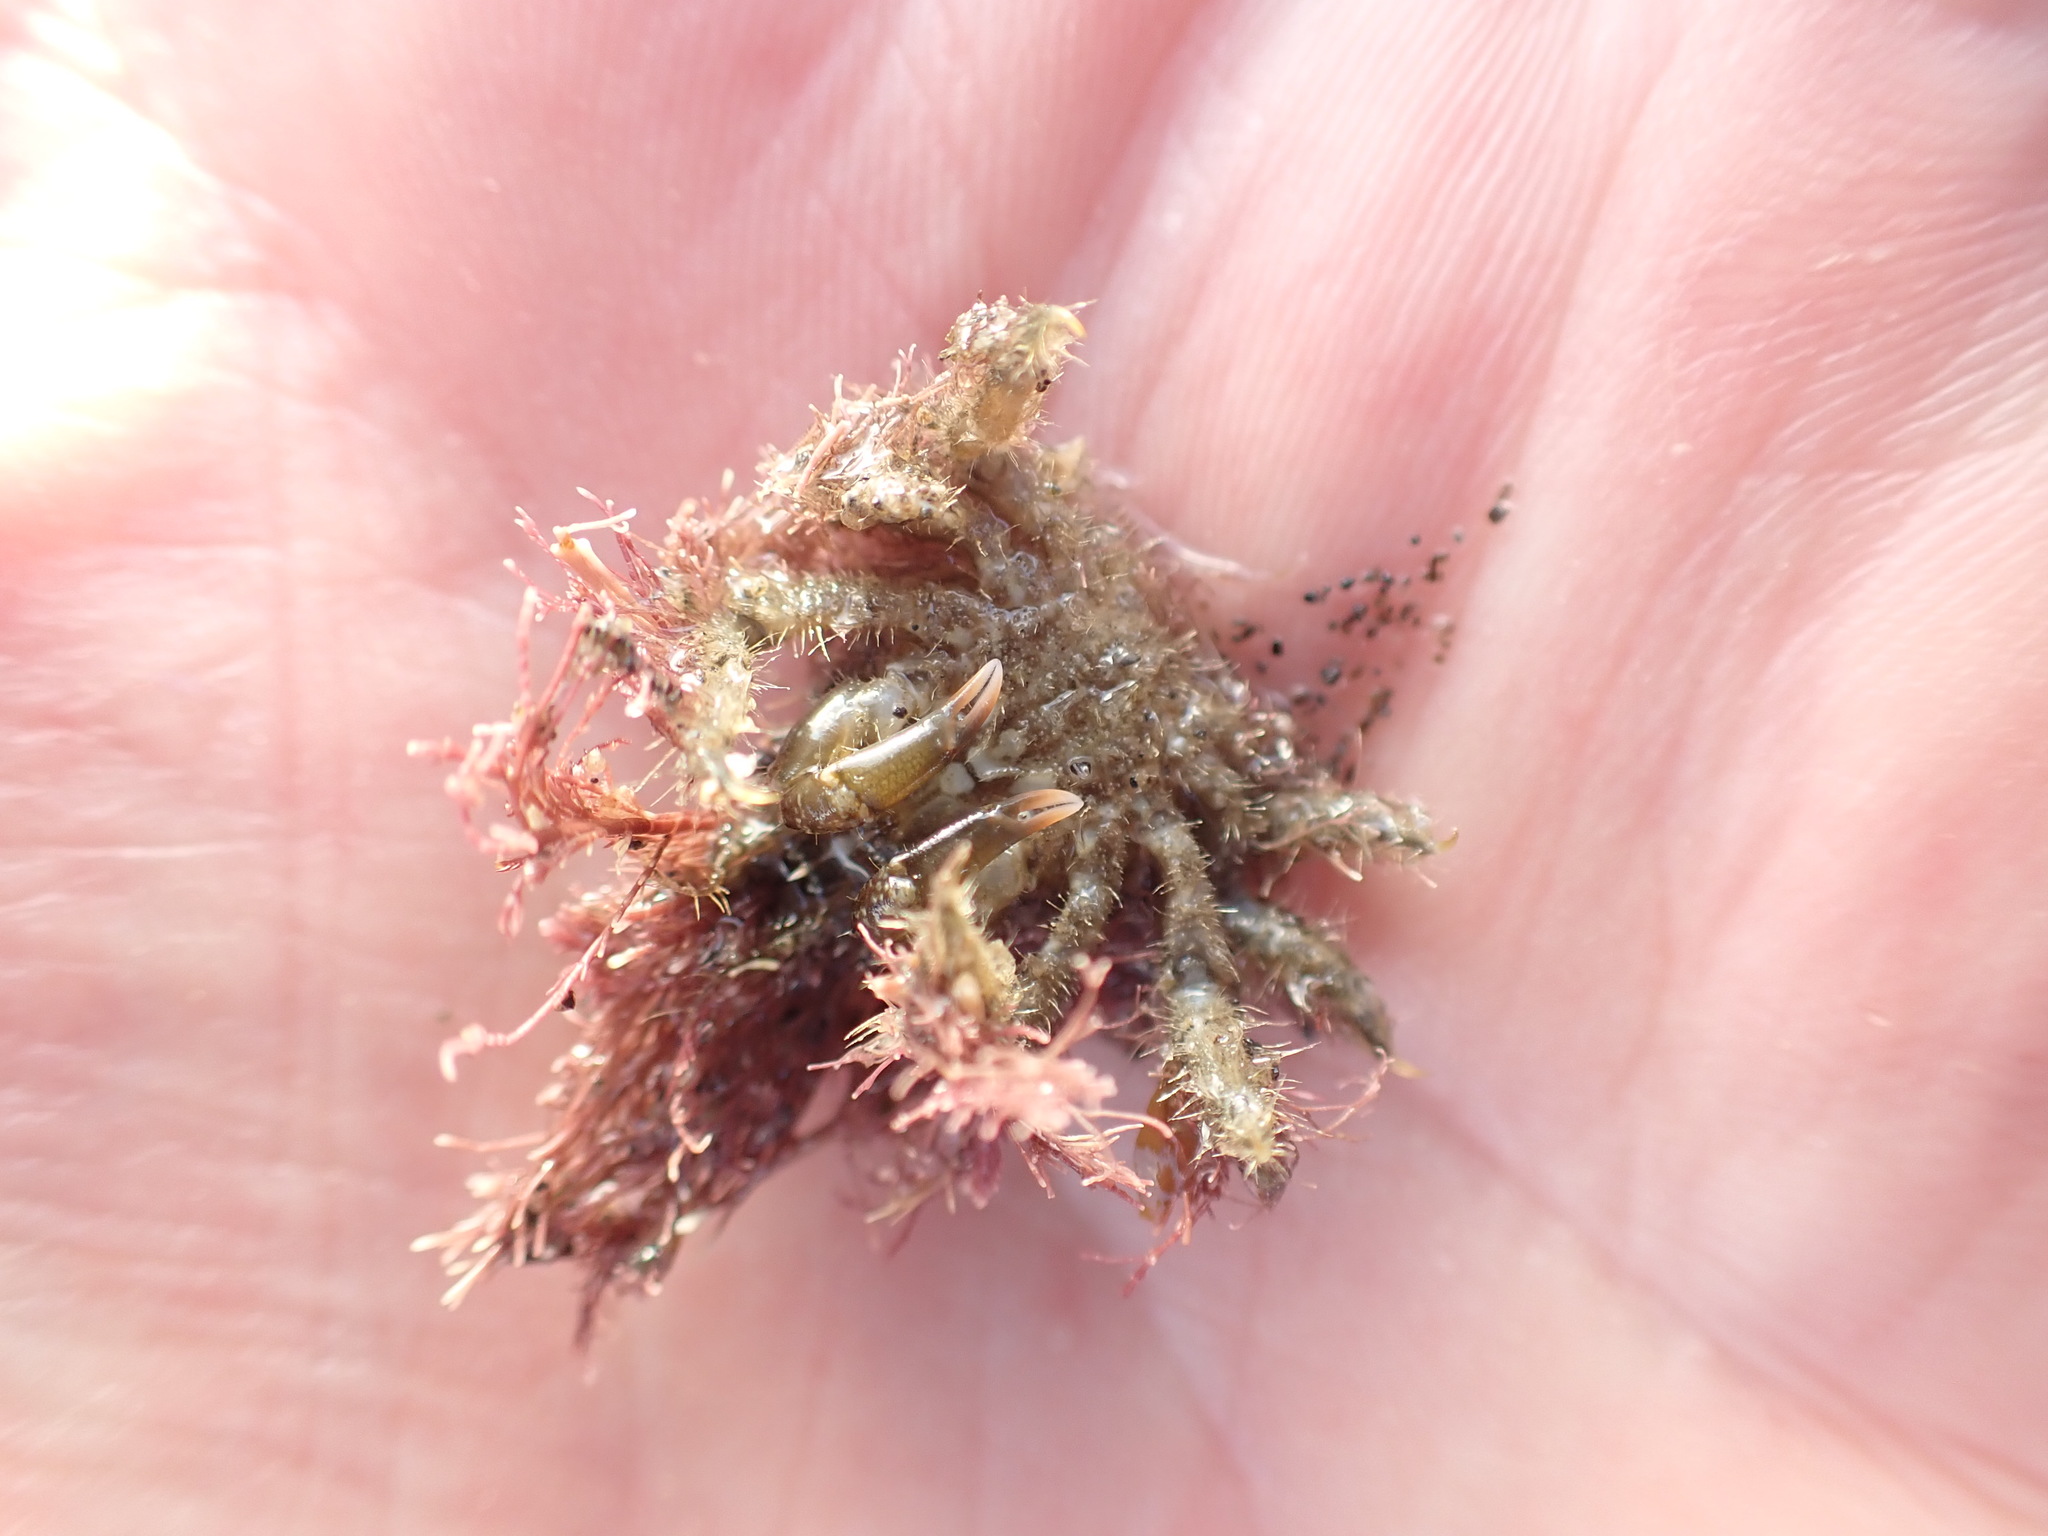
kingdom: Animalia
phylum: Arthropoda
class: Malacostraca
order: Decapoda
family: Majidae
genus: Notomithrax
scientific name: Notomithrax ursus
